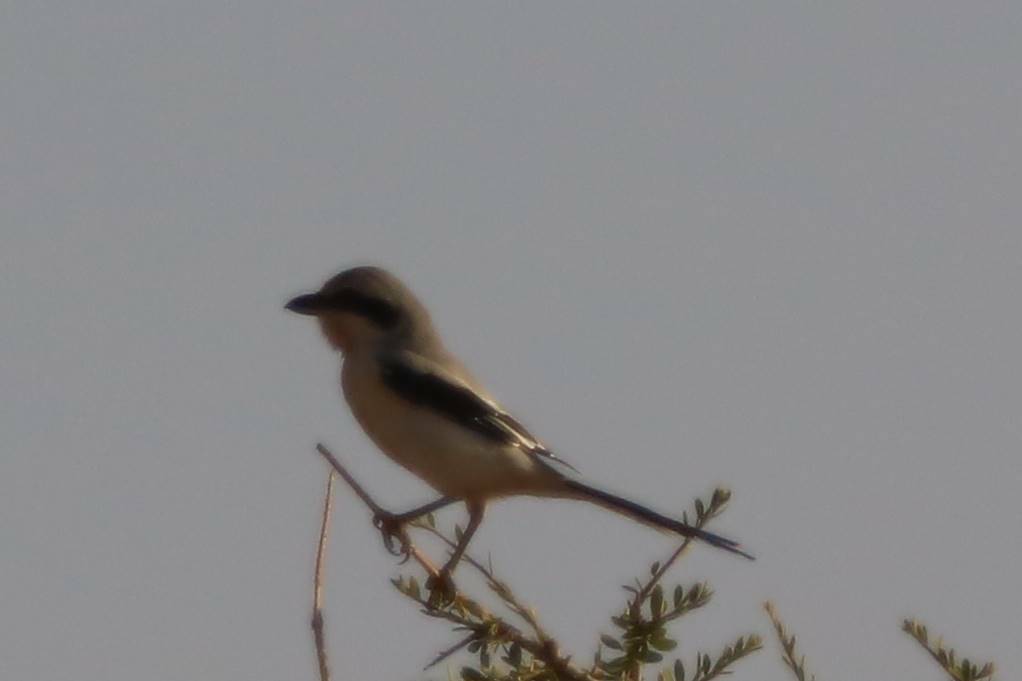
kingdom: Animalia
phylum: Chordata
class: Aves
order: Passeriformes
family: Laniidae
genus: Lanius
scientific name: Lanius excubitor
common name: Great grey shrike
